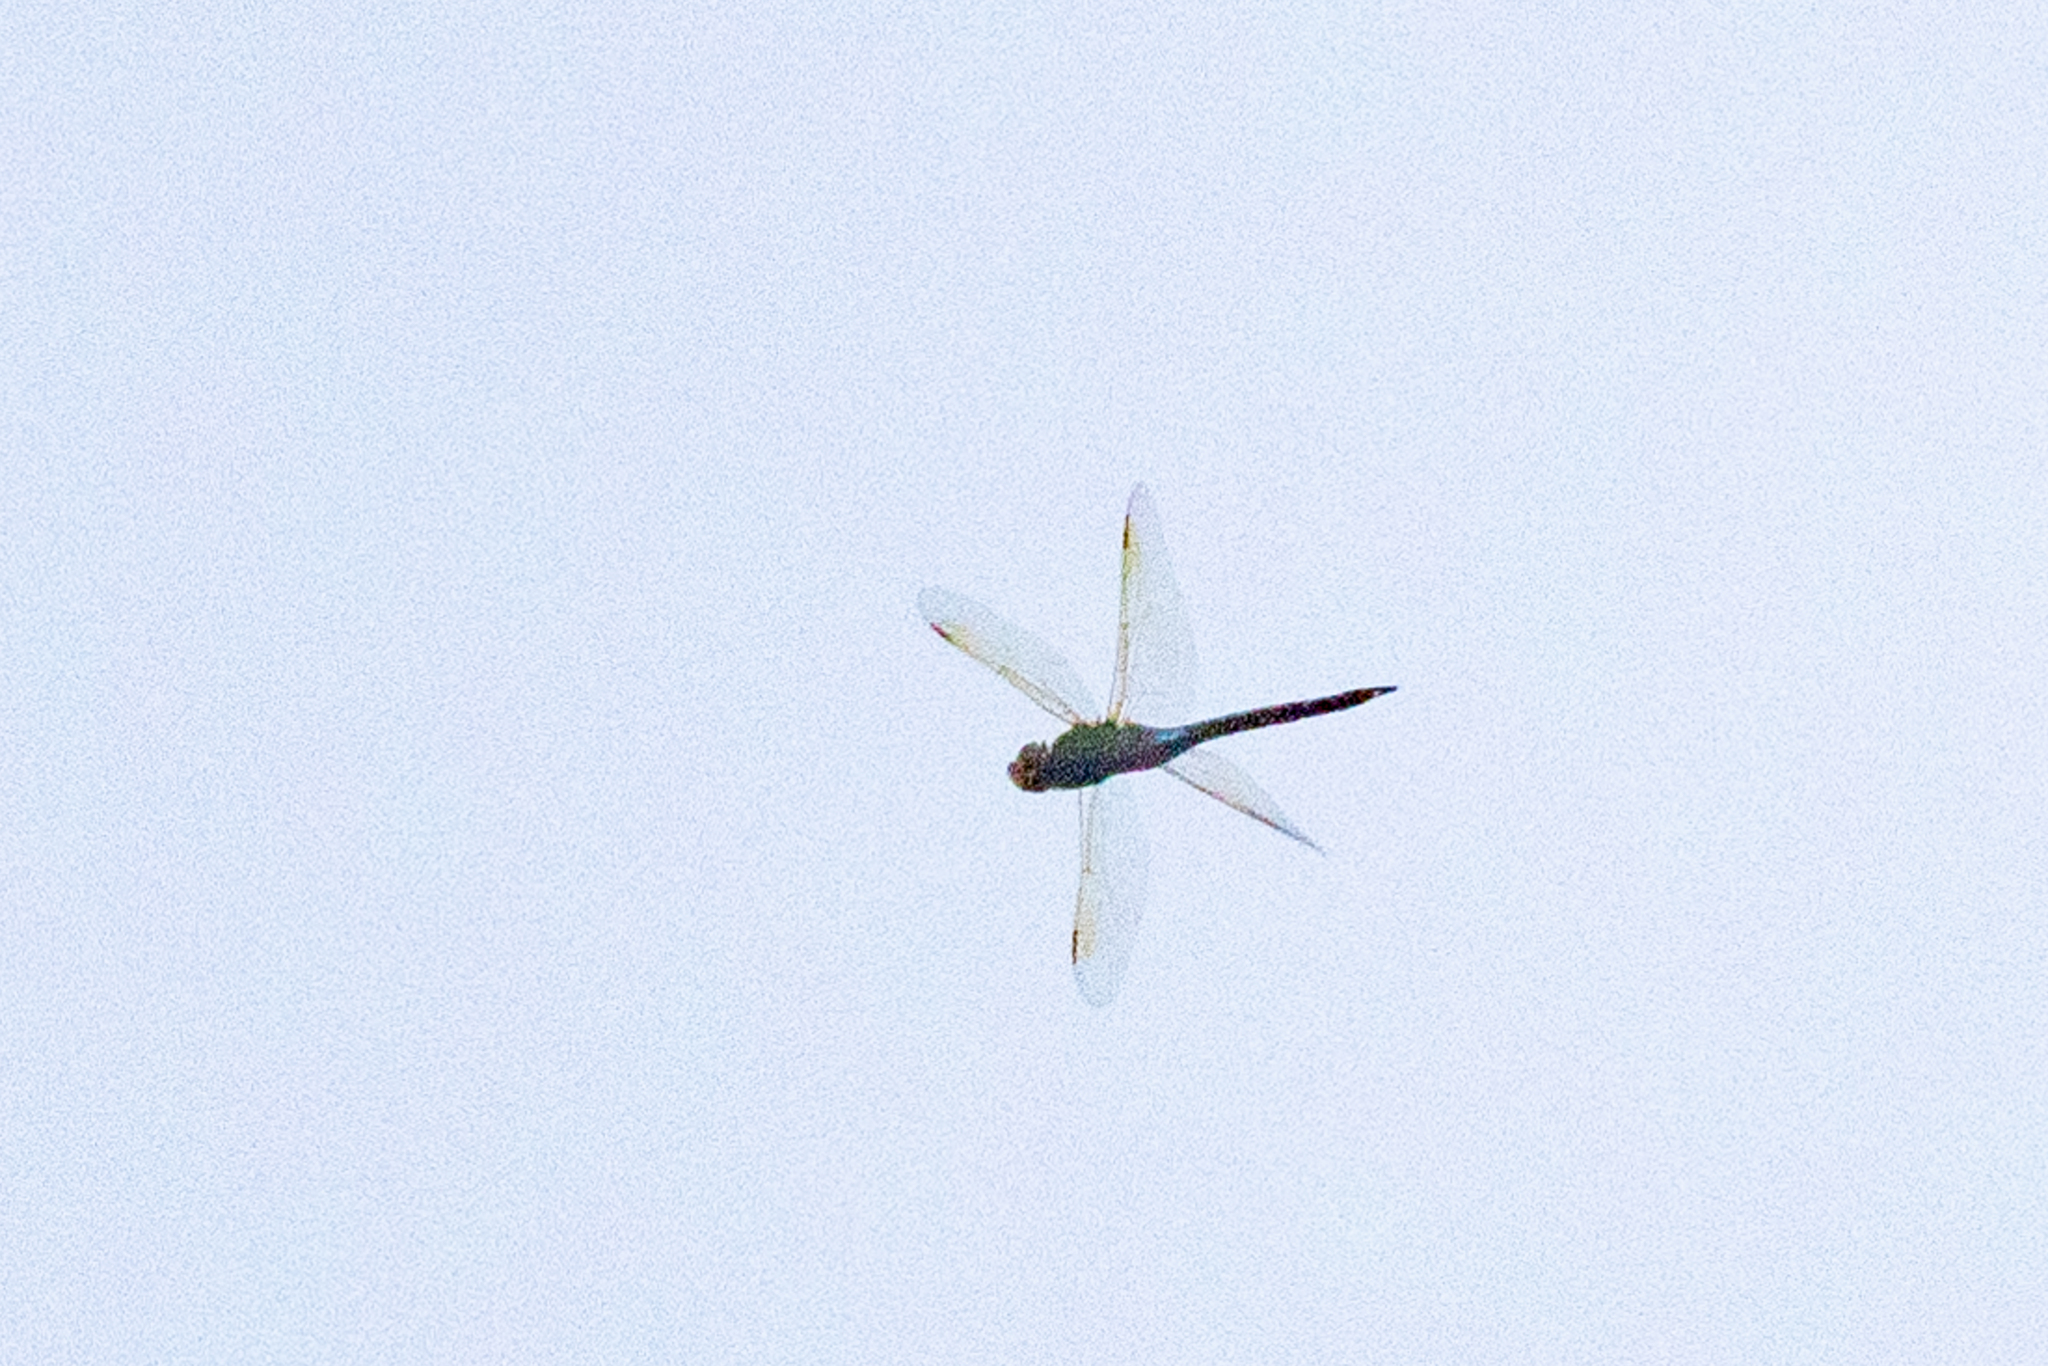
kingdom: Animalia
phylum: Arthropoda
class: Insecta
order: Odonata
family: Aeshnidae
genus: Anax
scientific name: Anax junius
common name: Common green darner
